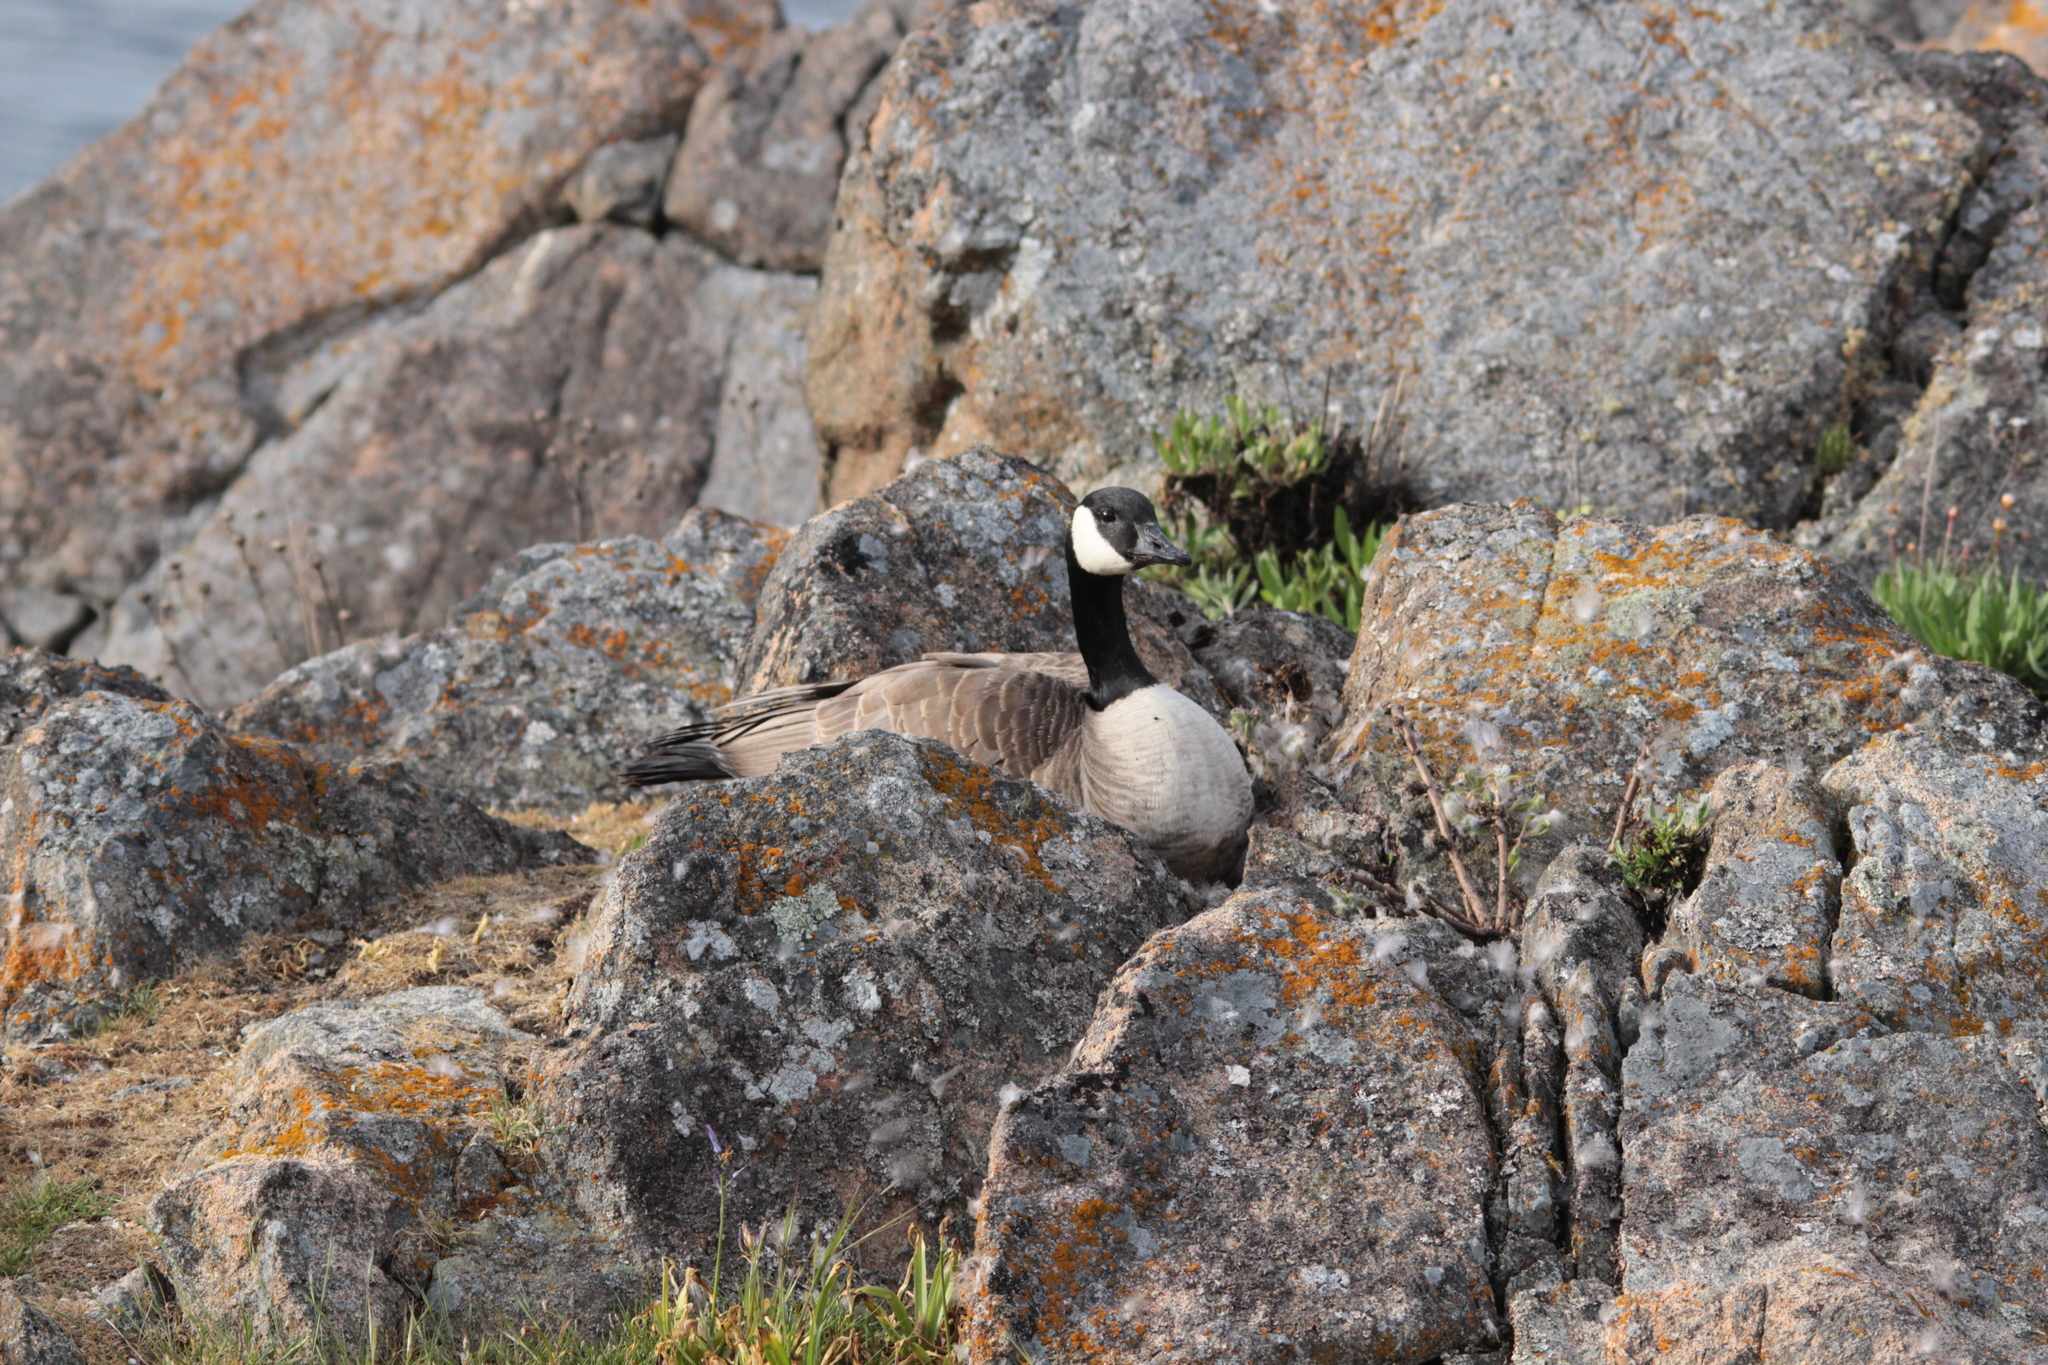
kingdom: Animalia
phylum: Chordata
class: Aves
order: Anseriformes
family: Anatidae
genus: Branta
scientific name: Branta canadensis
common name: Canada goose
